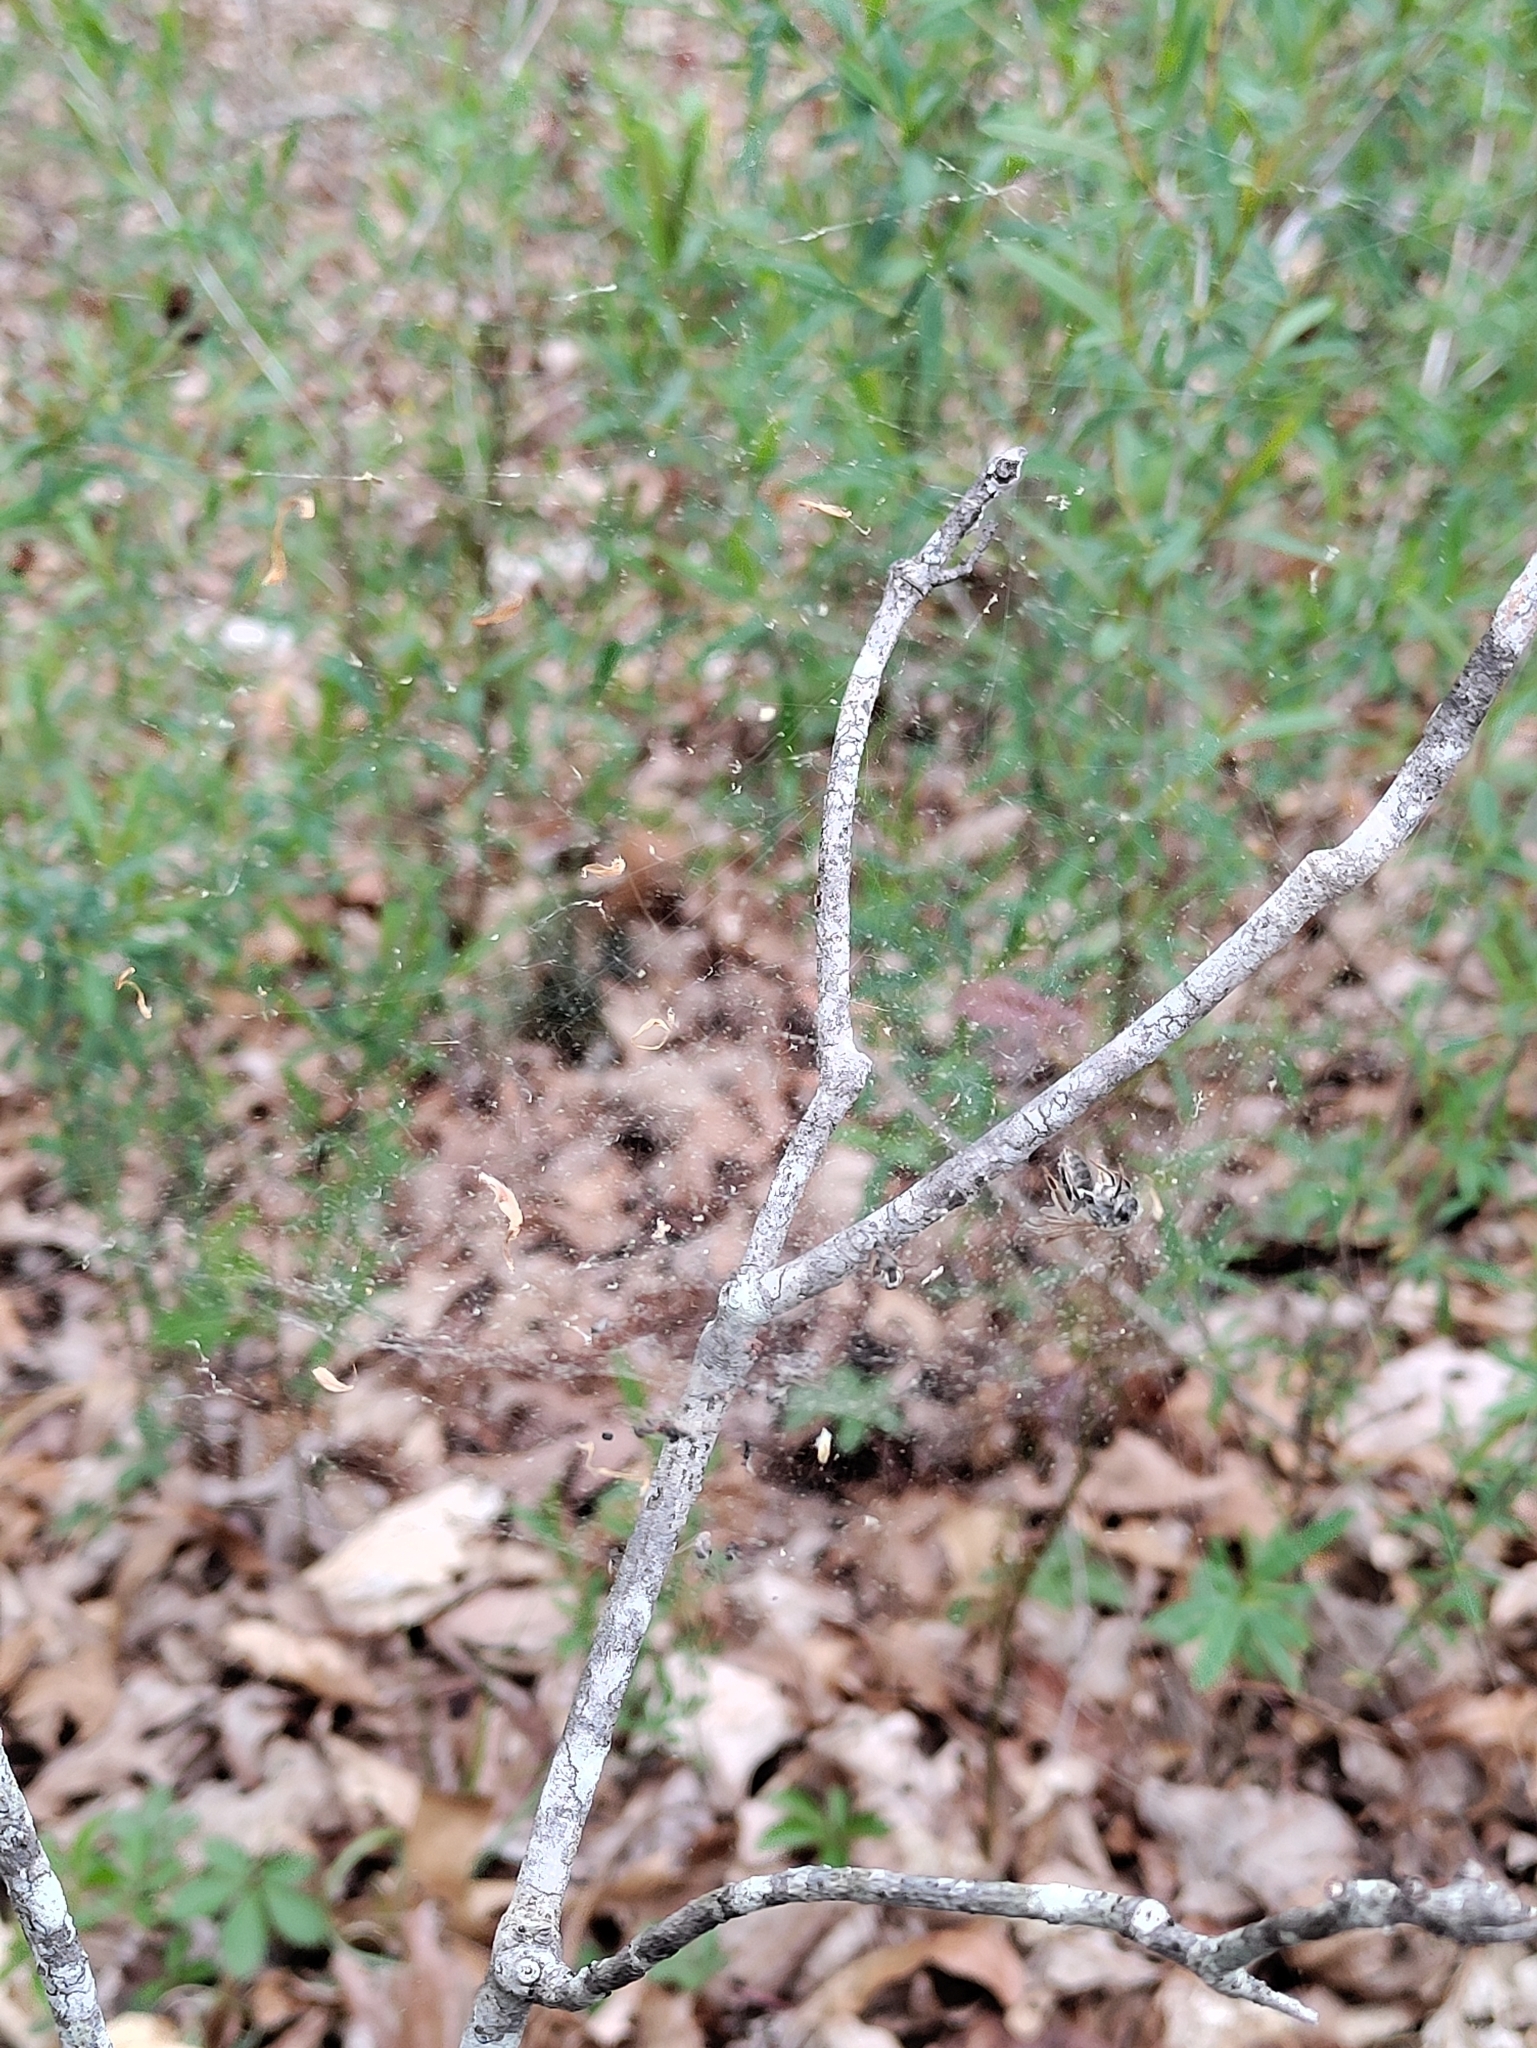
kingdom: Animalia
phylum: Arthropoda
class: Arachnida
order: Araneae
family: Linyphiidae
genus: Frontinella
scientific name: Frontinella pyramitela
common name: Bowl-and-doily spider
